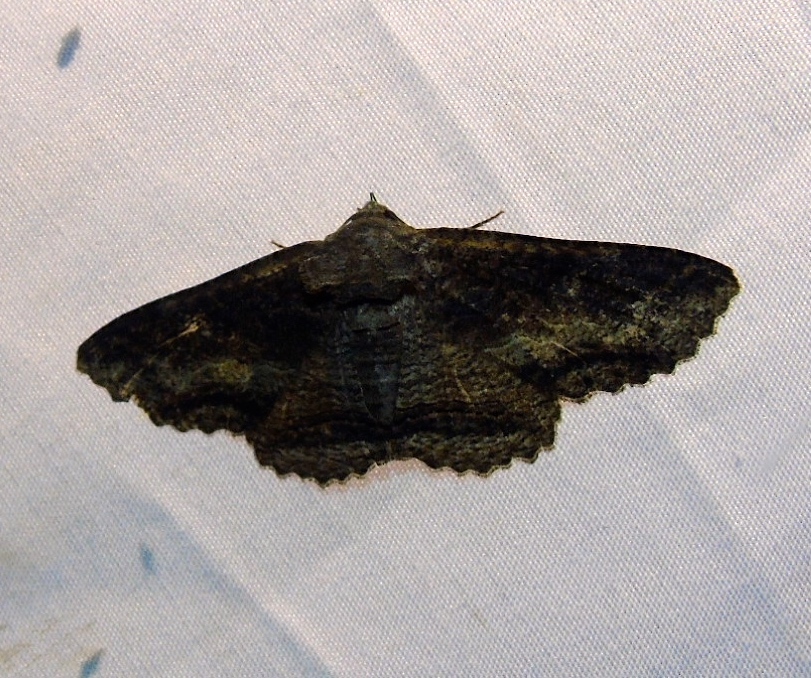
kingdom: Animalia
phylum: Arthropoda
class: Insecta
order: Lepidoptera
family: Erebidae
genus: Zale
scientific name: Zale
